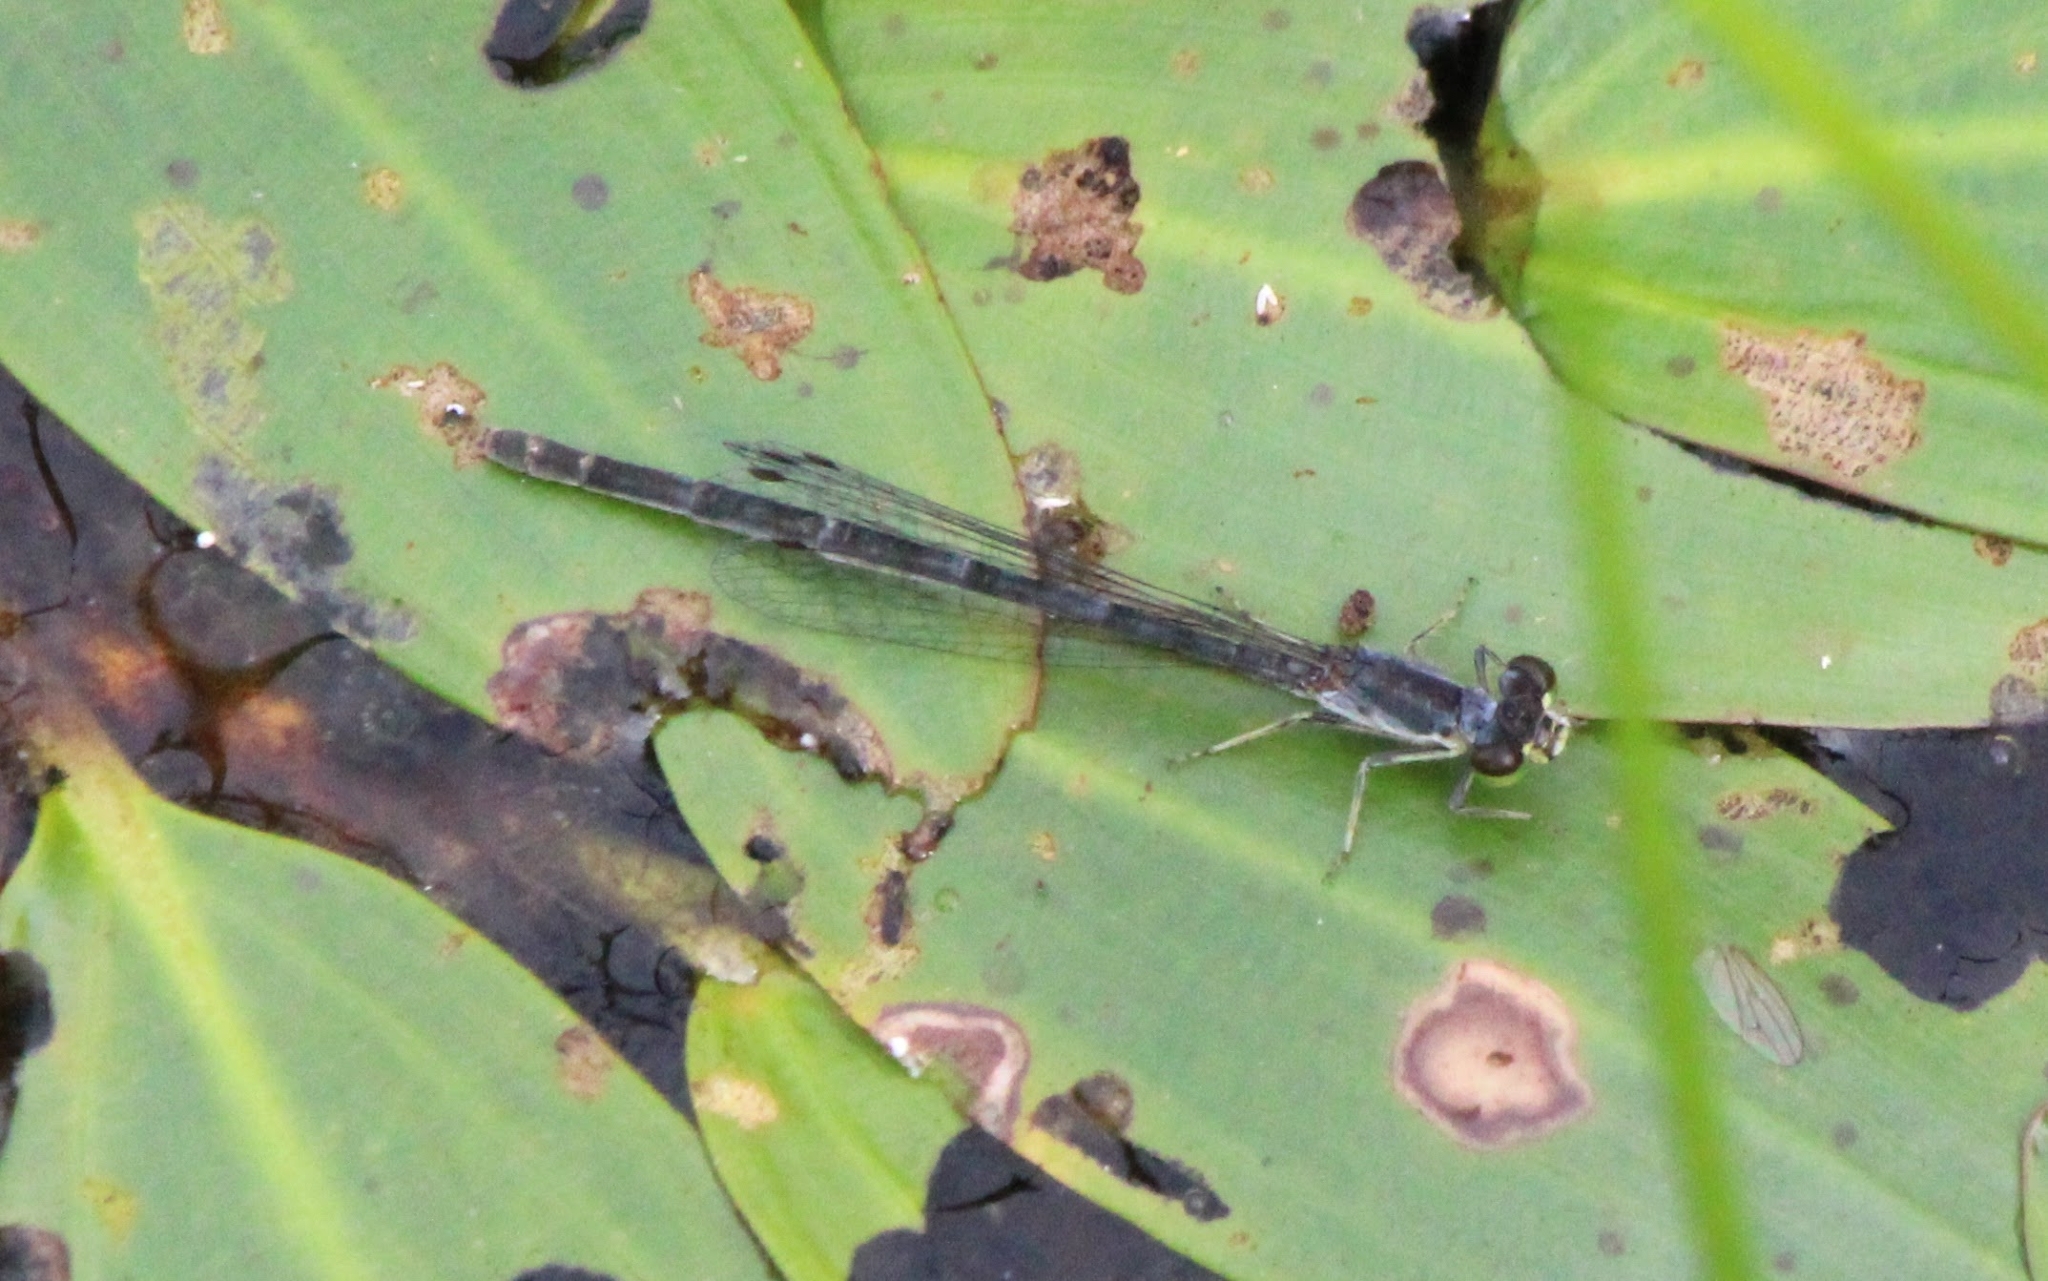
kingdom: Animalia
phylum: Arthropoda
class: Insecta
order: Odonata
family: Coenagrionidae
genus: Ischnura
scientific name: Ischnura posita
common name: Fragile forktail
